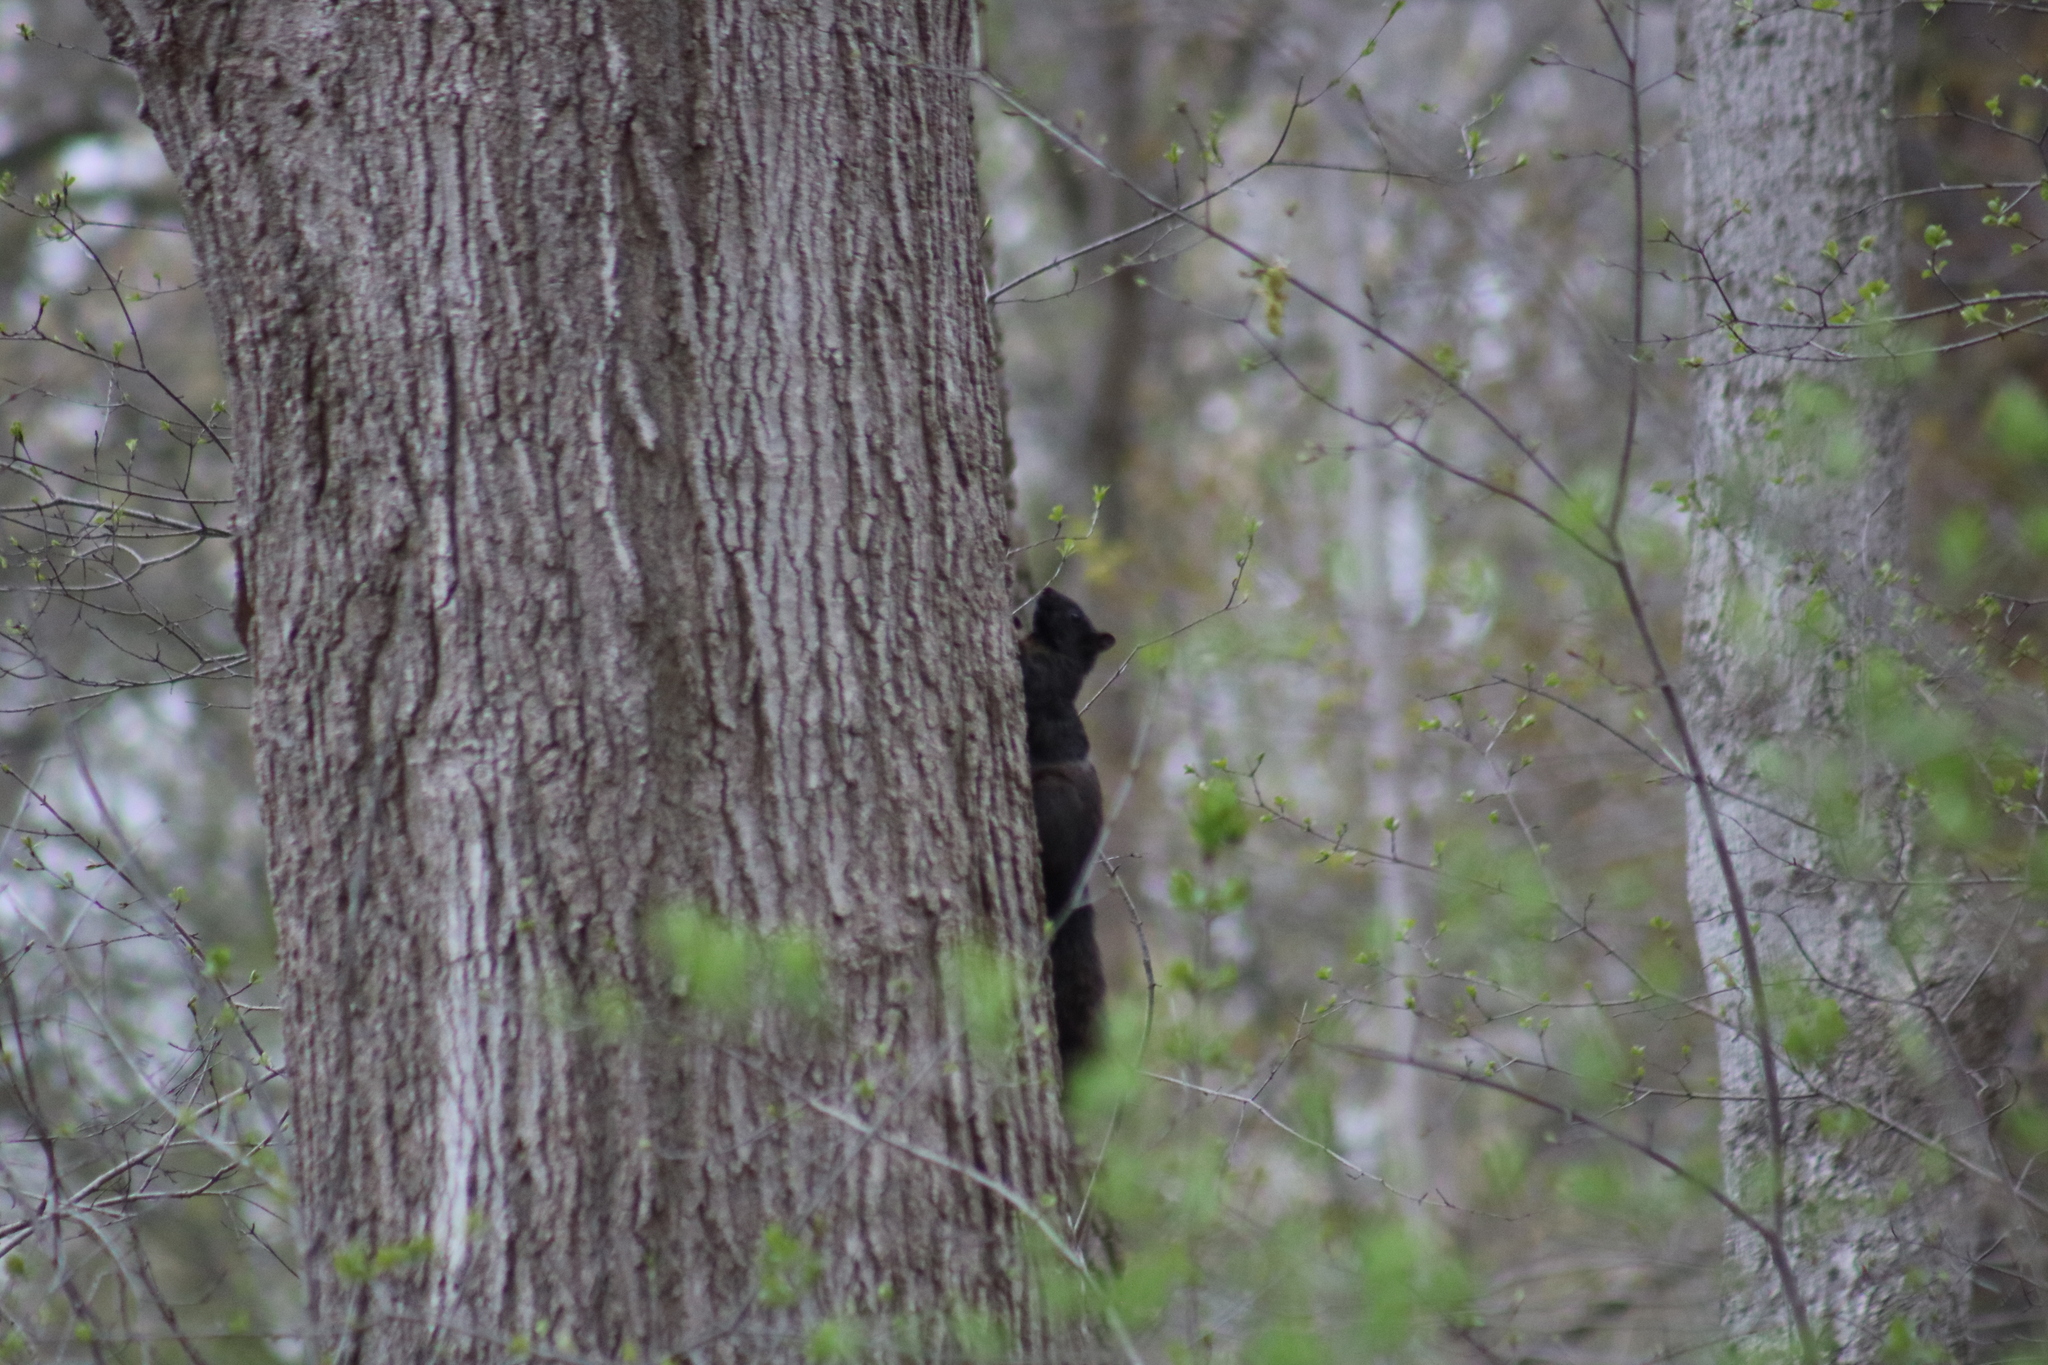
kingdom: Animalia
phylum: Chordata
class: Mammalia
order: Rodentia
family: Sciuridae
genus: Sciurus
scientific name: Sciurus carolinensis
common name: Eastern gray squirrel
